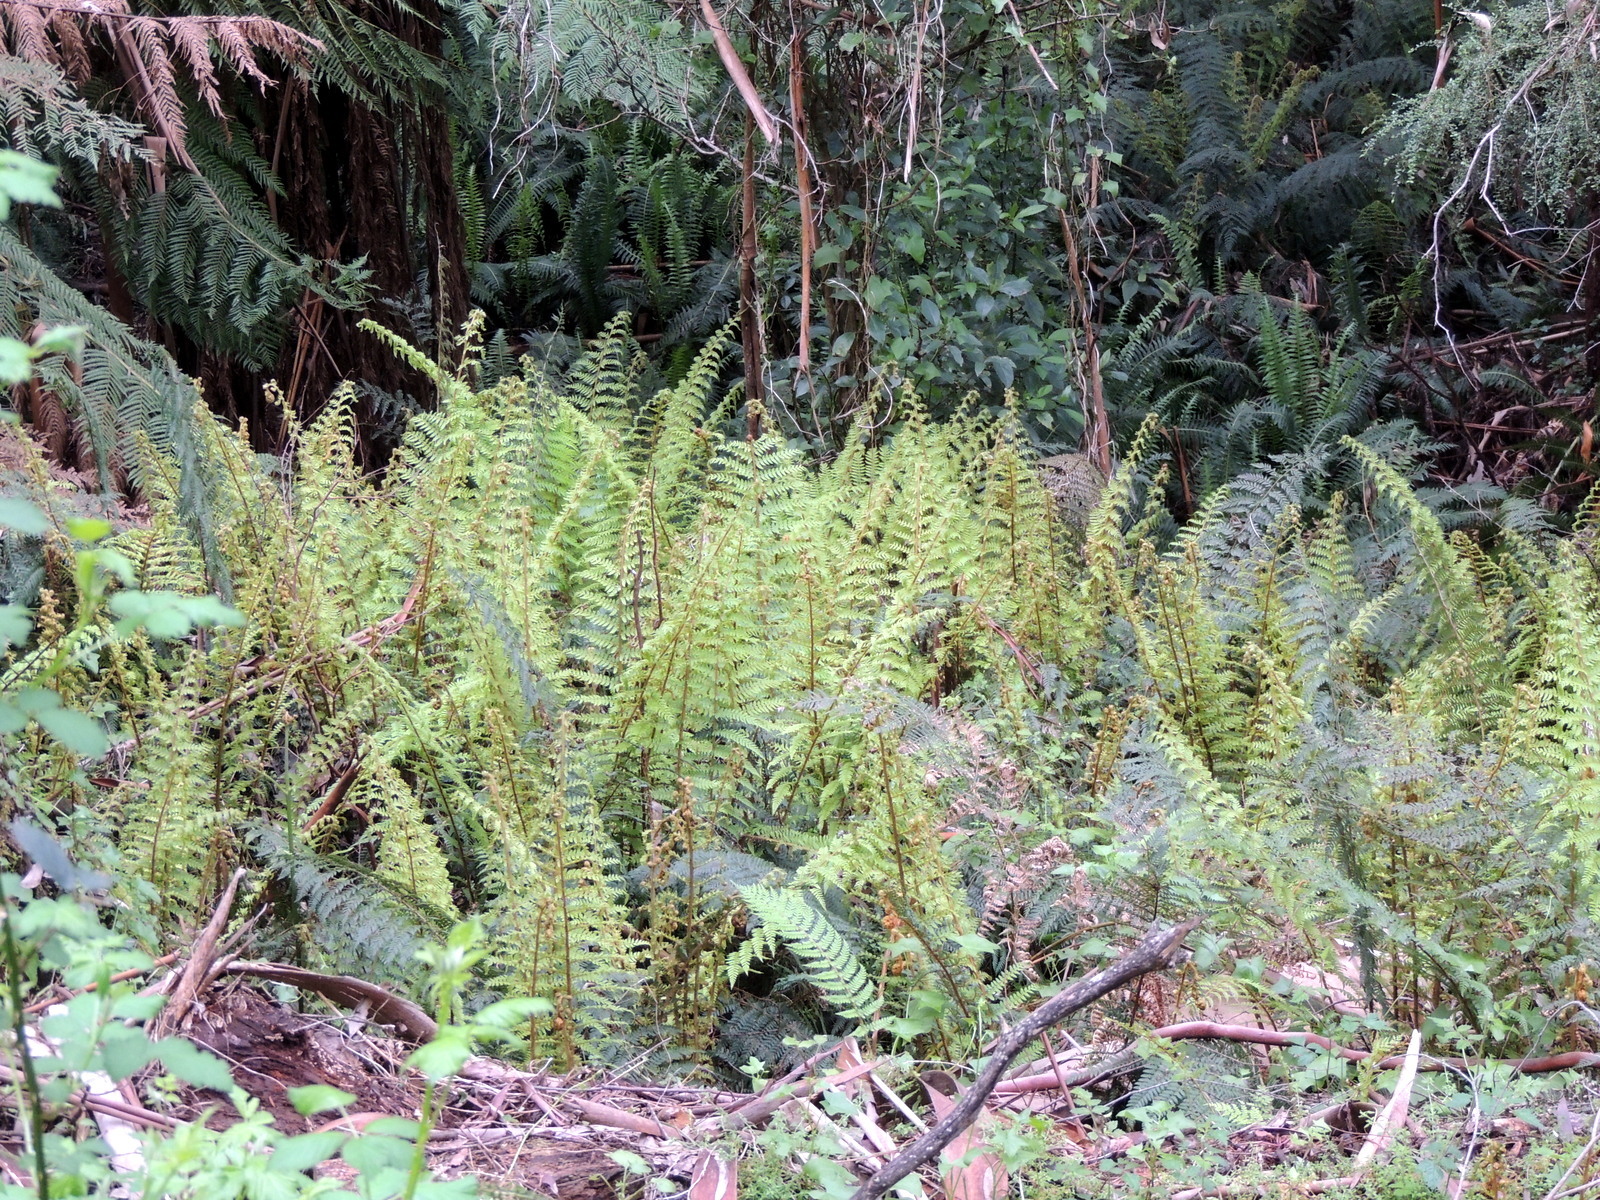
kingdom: Plantae
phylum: Tracheophyta
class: Polypodiopsida
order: Polypodiales
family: Dryopteridaceae
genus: Polystichum
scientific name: Polystichum proliferum
